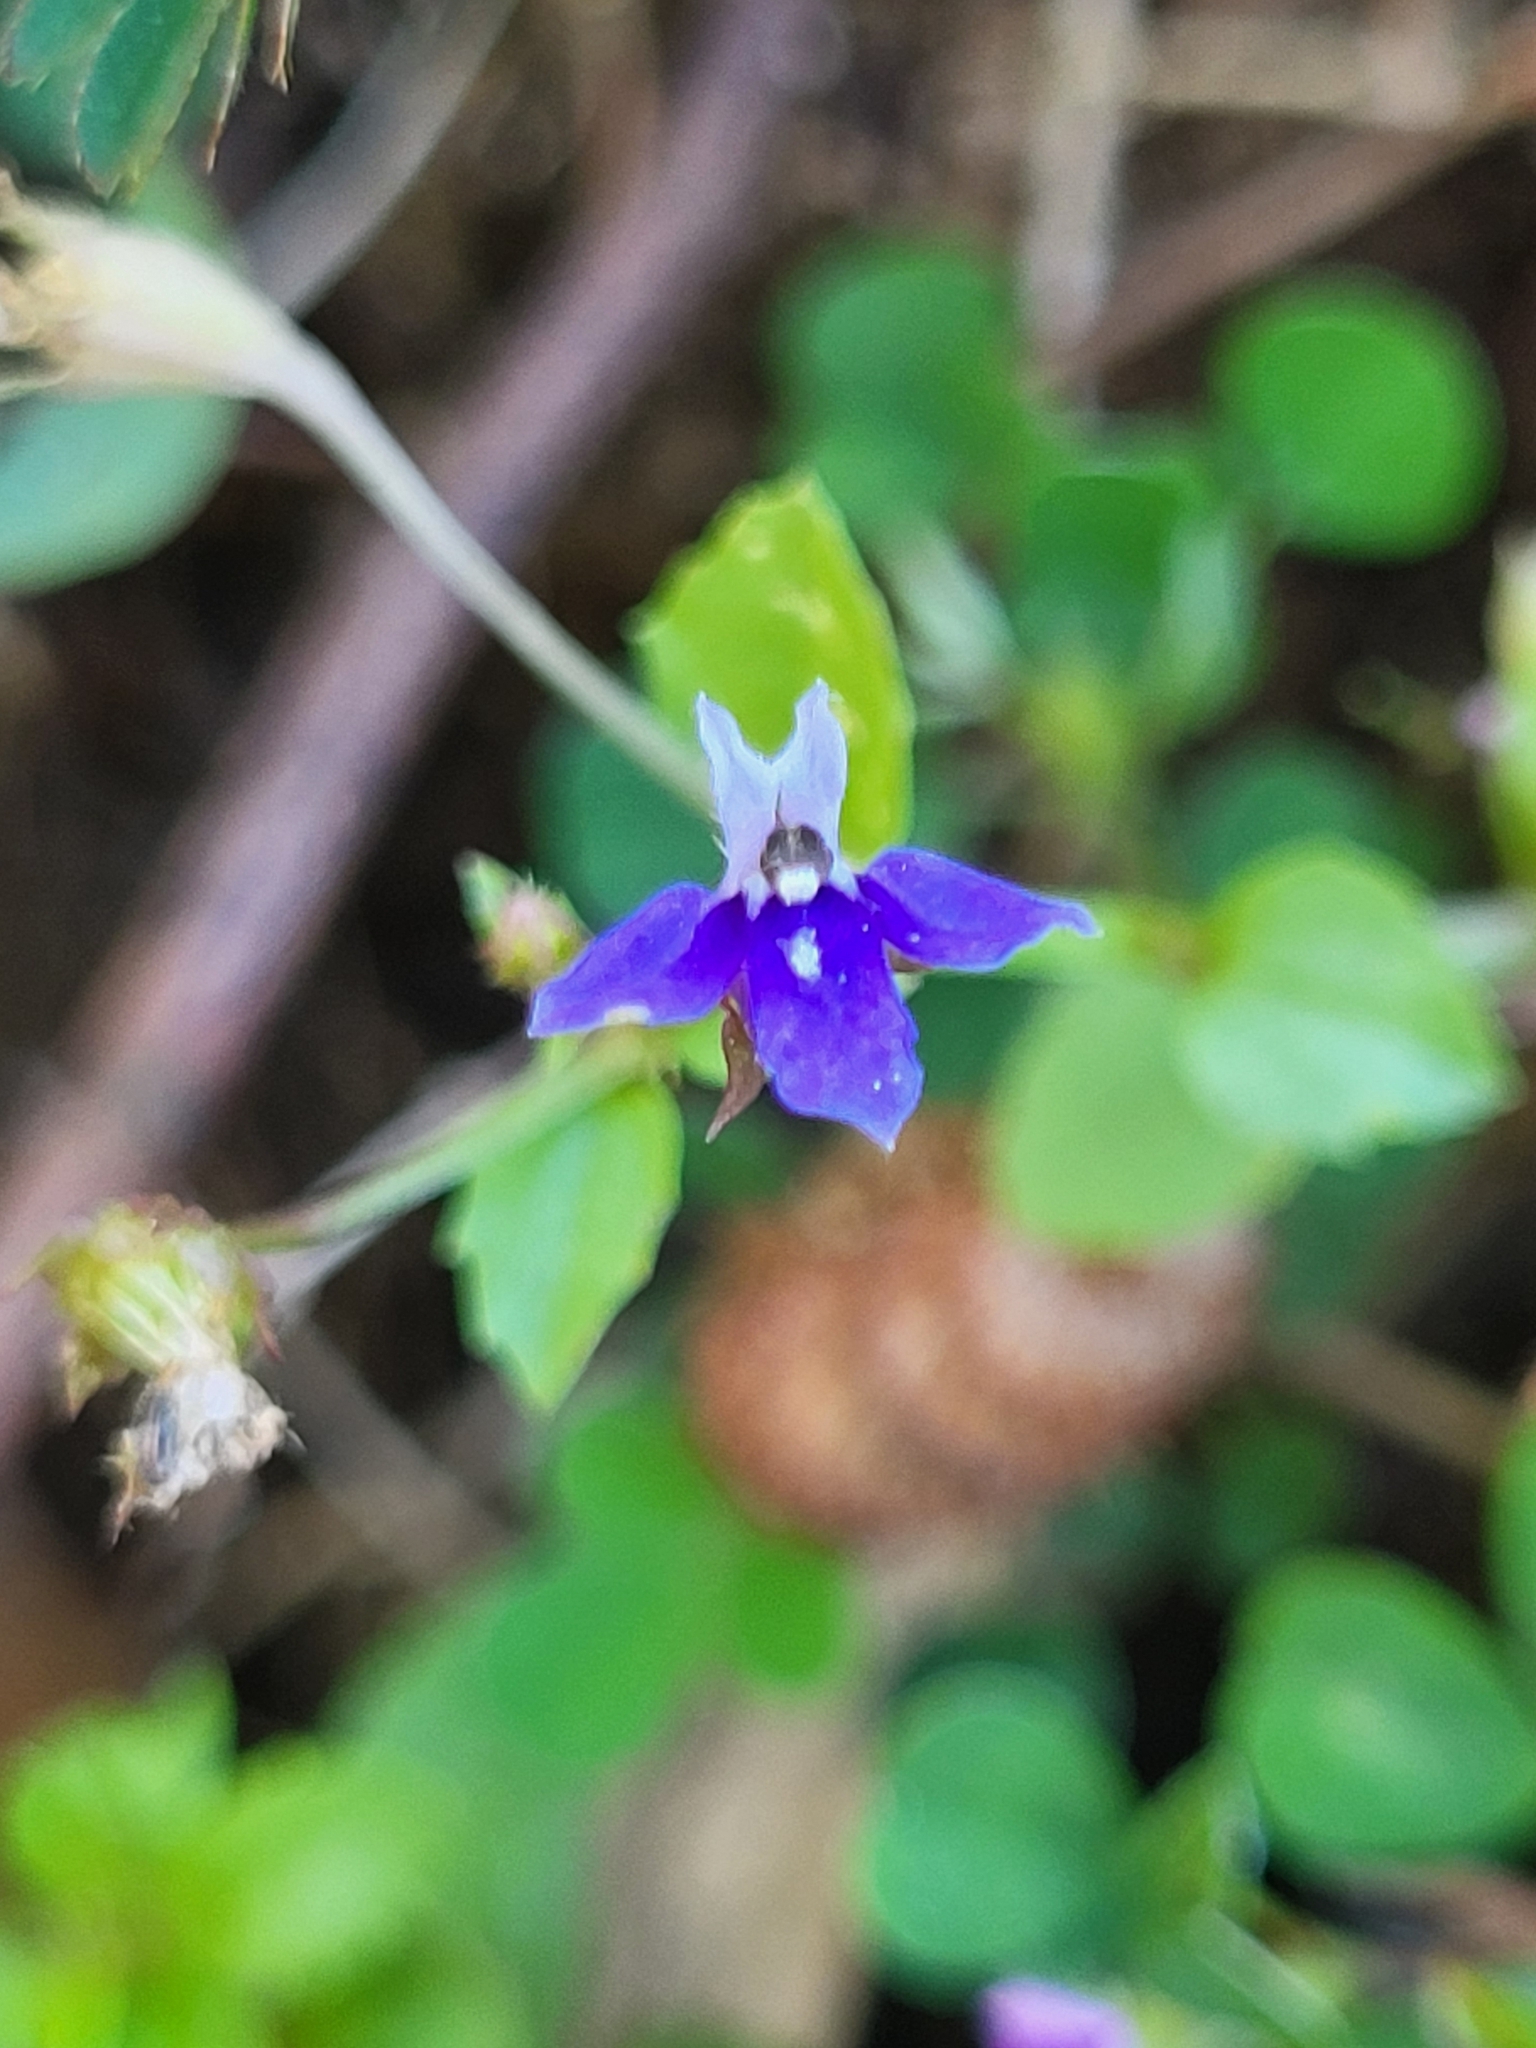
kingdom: Plantae
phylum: Tracheophyta
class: Magnoliopsida
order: Asterales
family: Campanulaceae
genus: Lobelia
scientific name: Lobelia alsinoides
